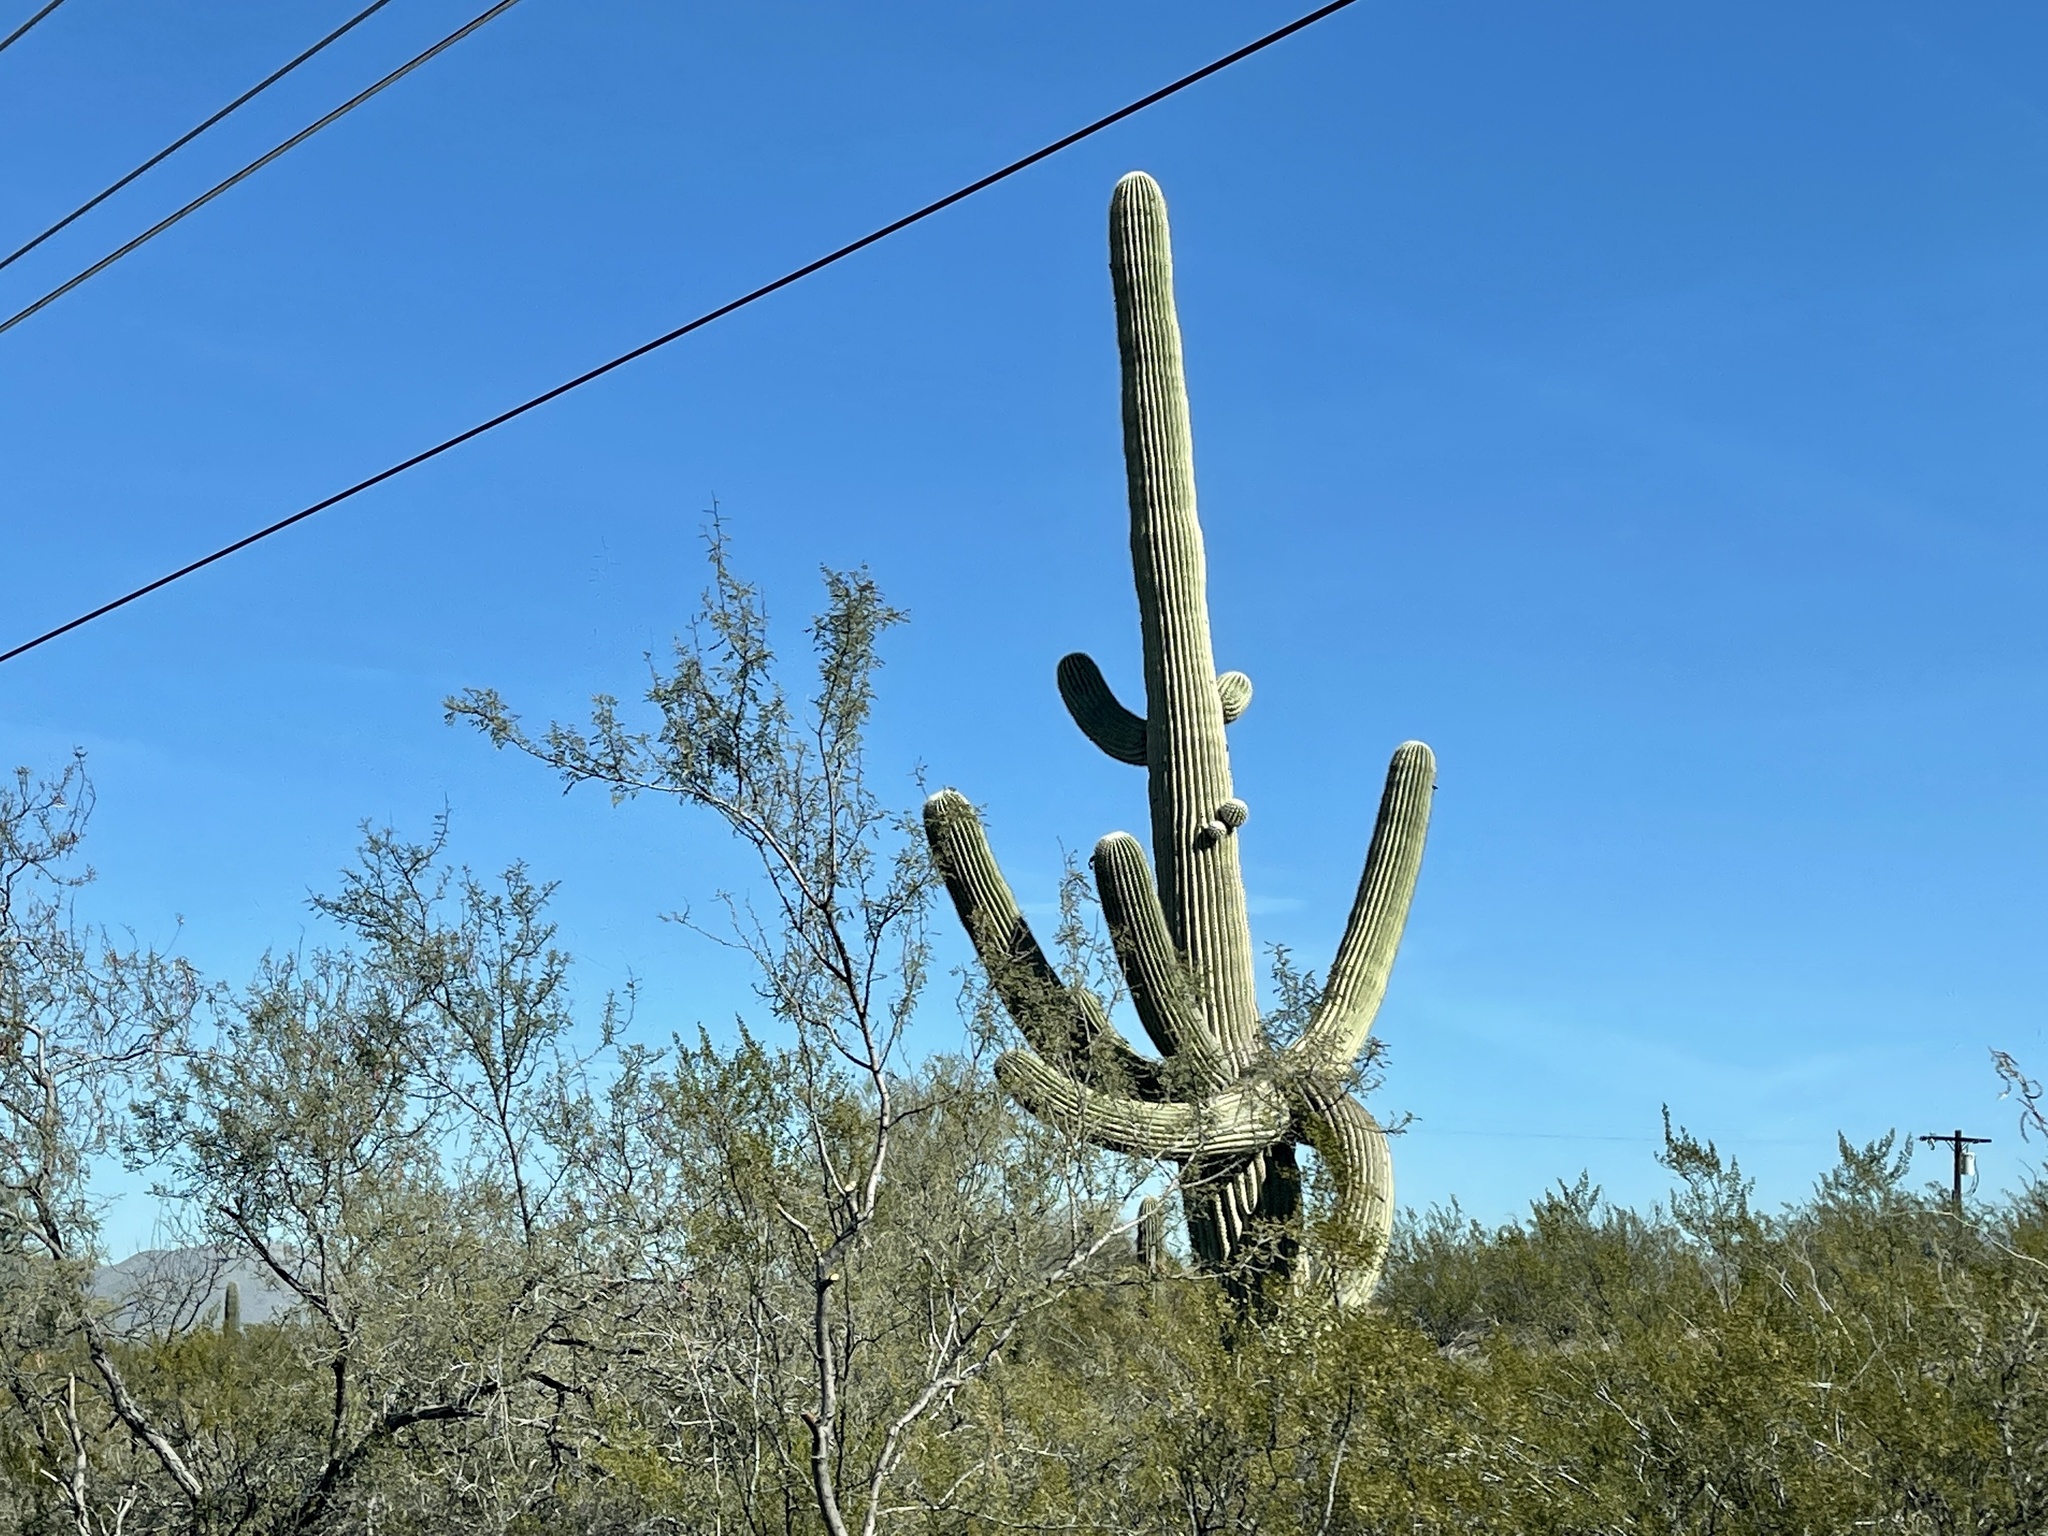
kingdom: Plantae
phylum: Tracheophyta
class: Magnoliopsida
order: Caryophyllales
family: Cactaceae
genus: Carnegiea
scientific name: Carnegiea gigantea
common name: Saguaro
